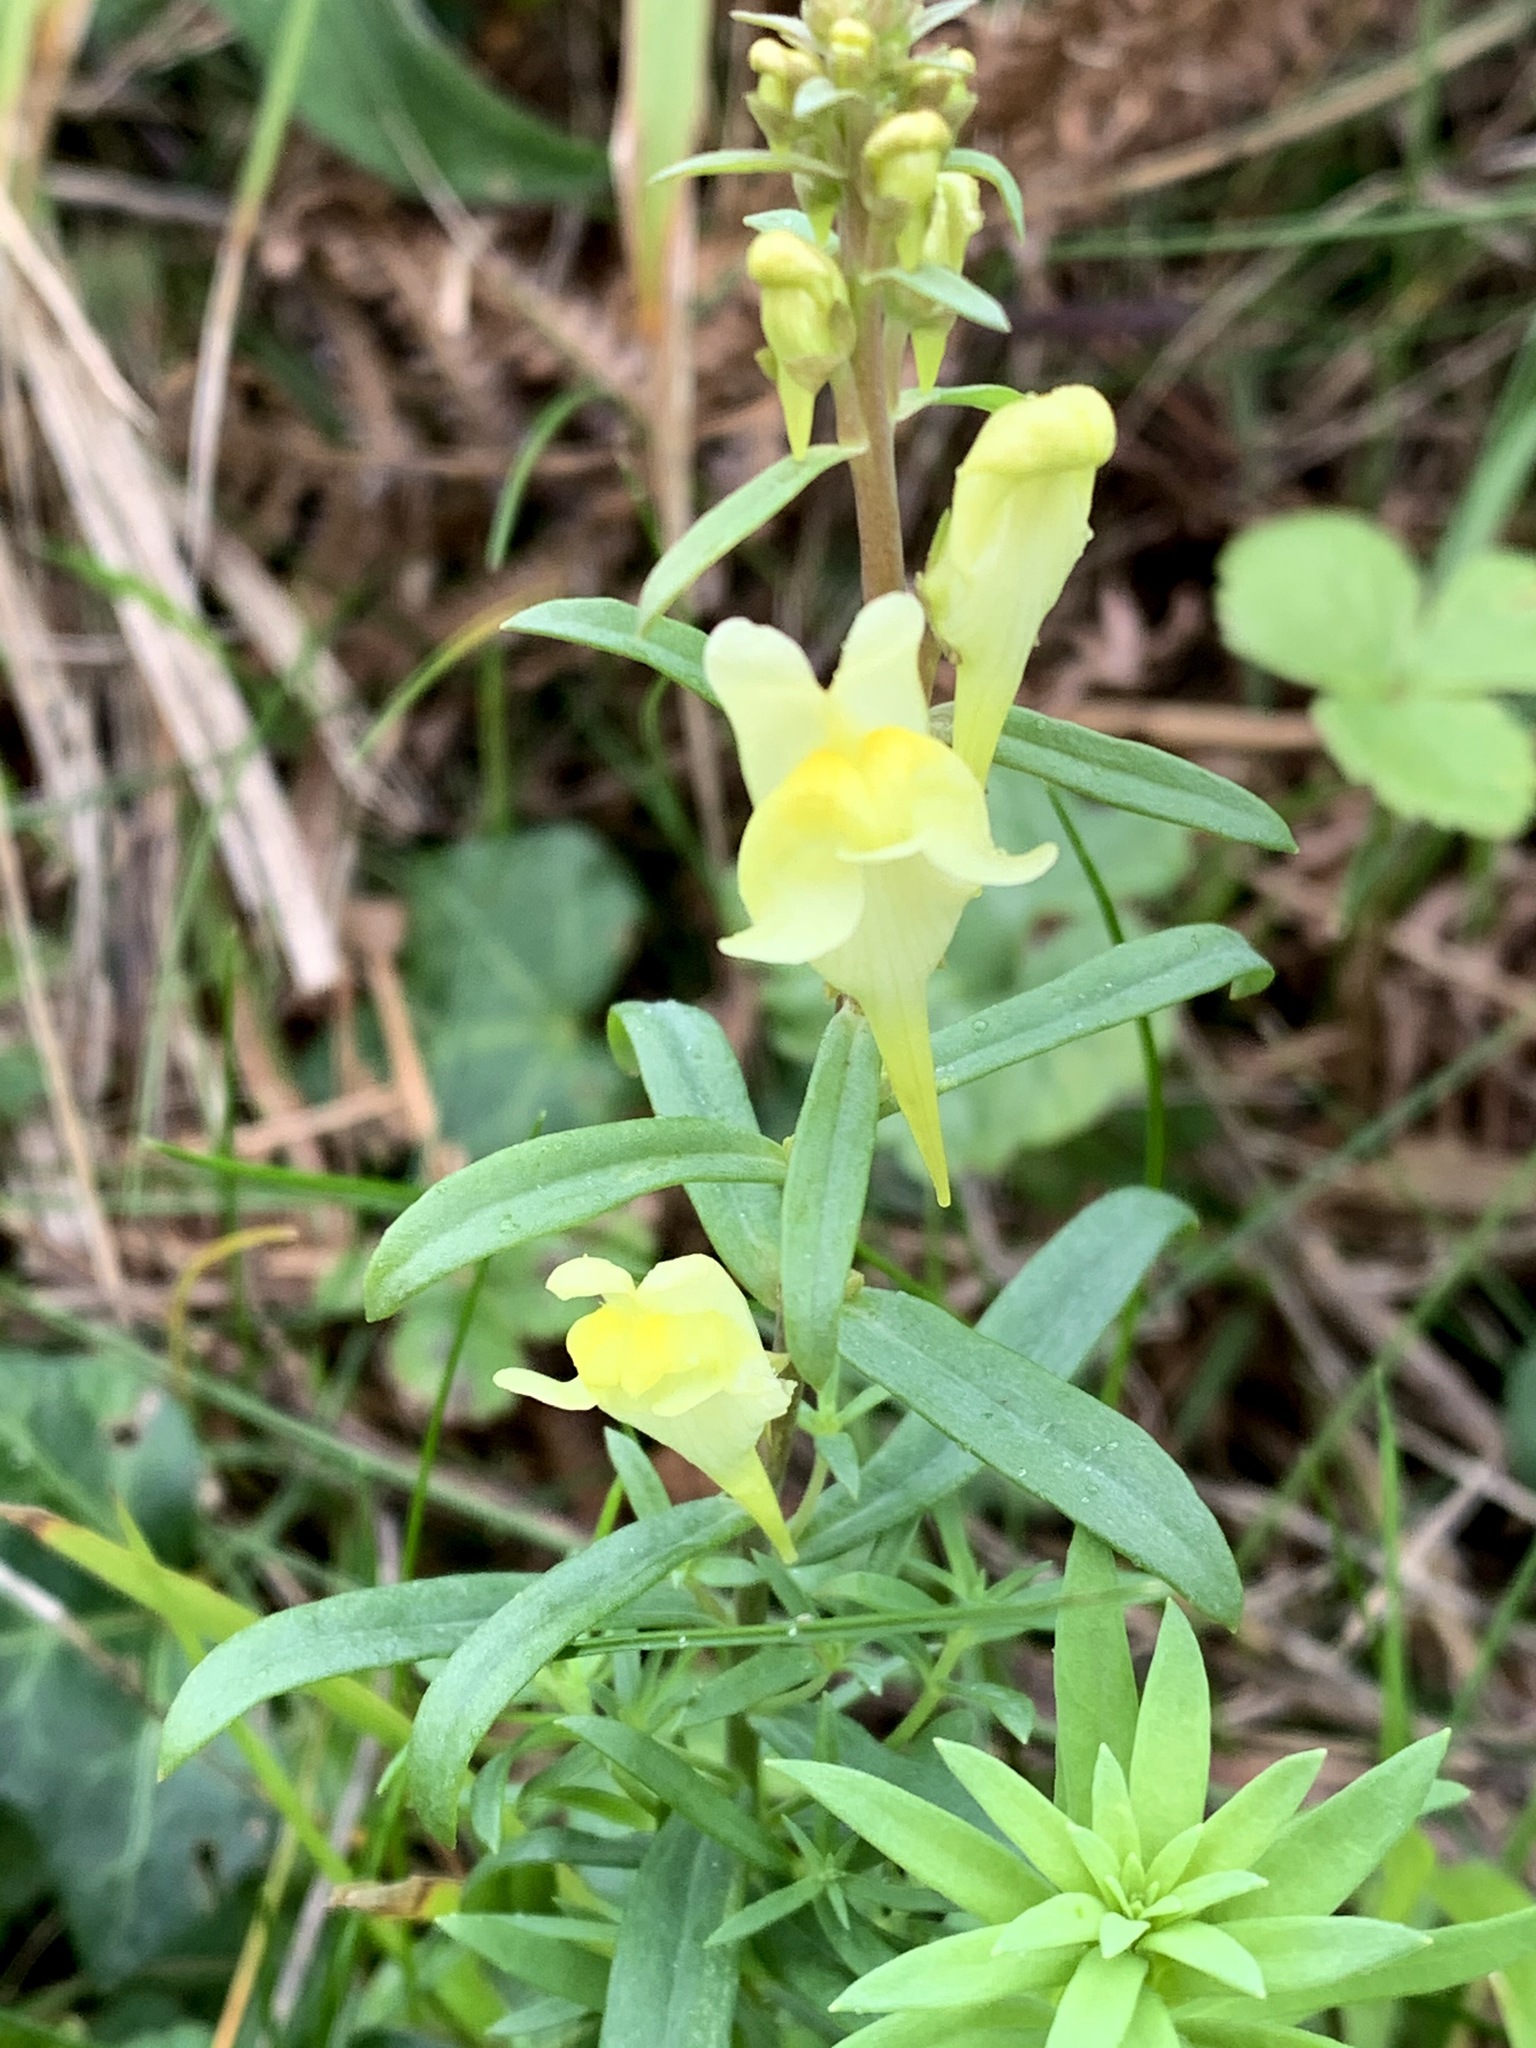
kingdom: Plantae
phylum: Tracheophyta
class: Magnoliopsida
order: Lamiales
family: Plantaginaceae
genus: Linaria
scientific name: Linaria vulgaris
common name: Butter and eggs
